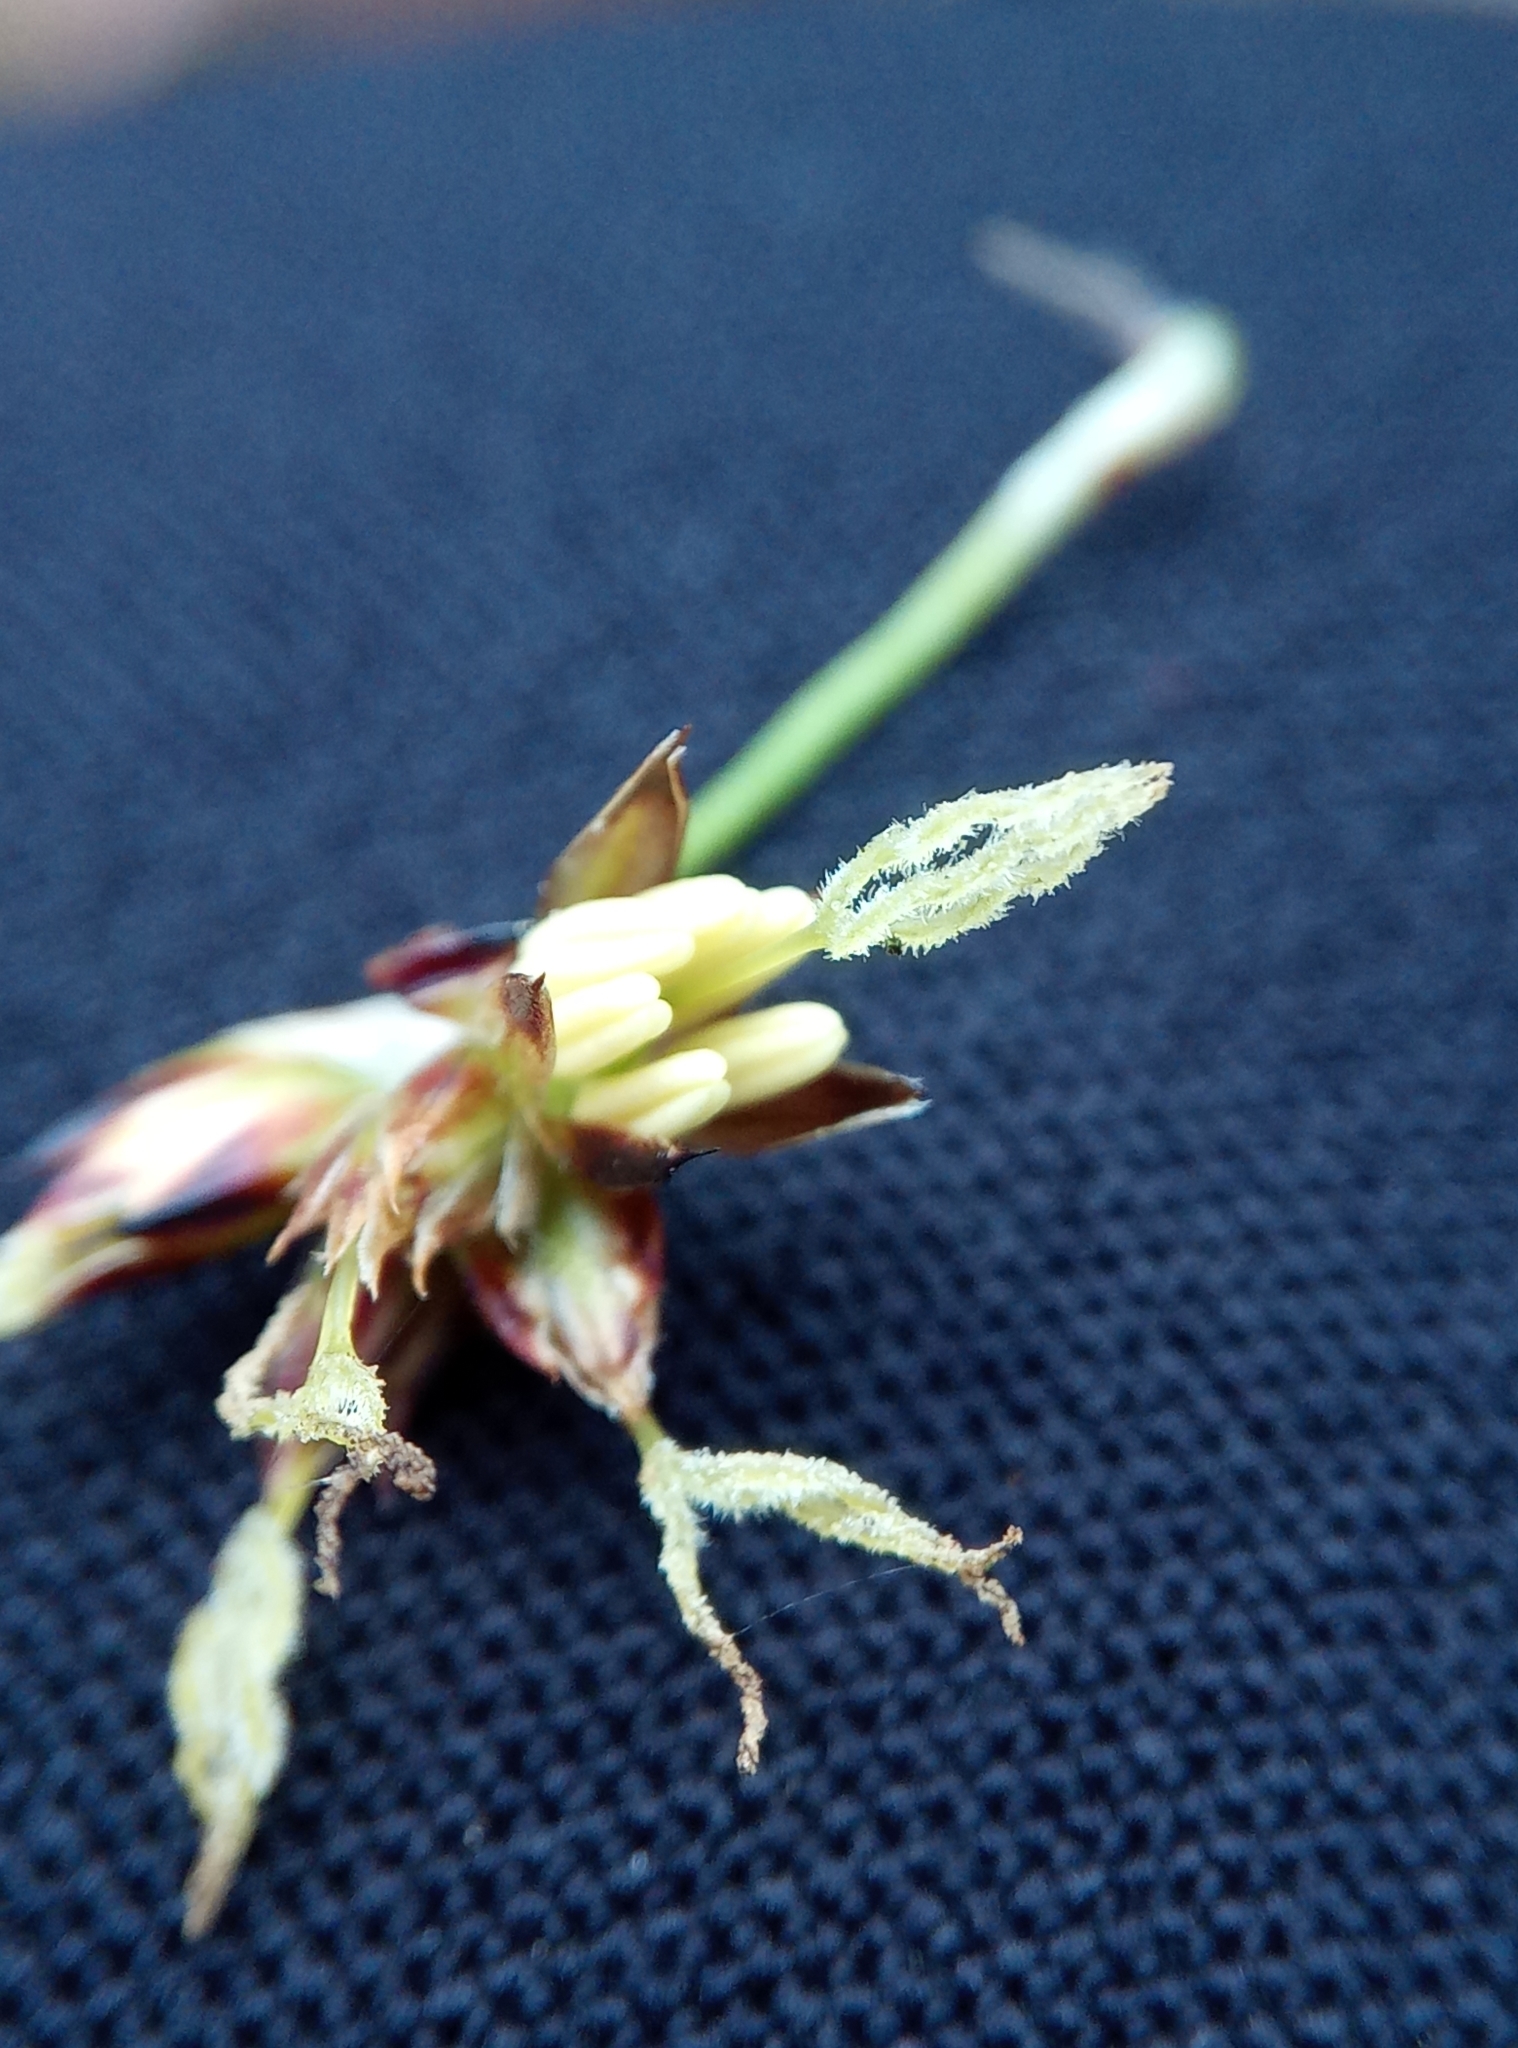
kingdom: Plantae
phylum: Tracheophyta
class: Liliopsida
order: Poales
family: Juncaceae
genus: Luzula
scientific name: Luzula sylvatica
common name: Great wood-rush
